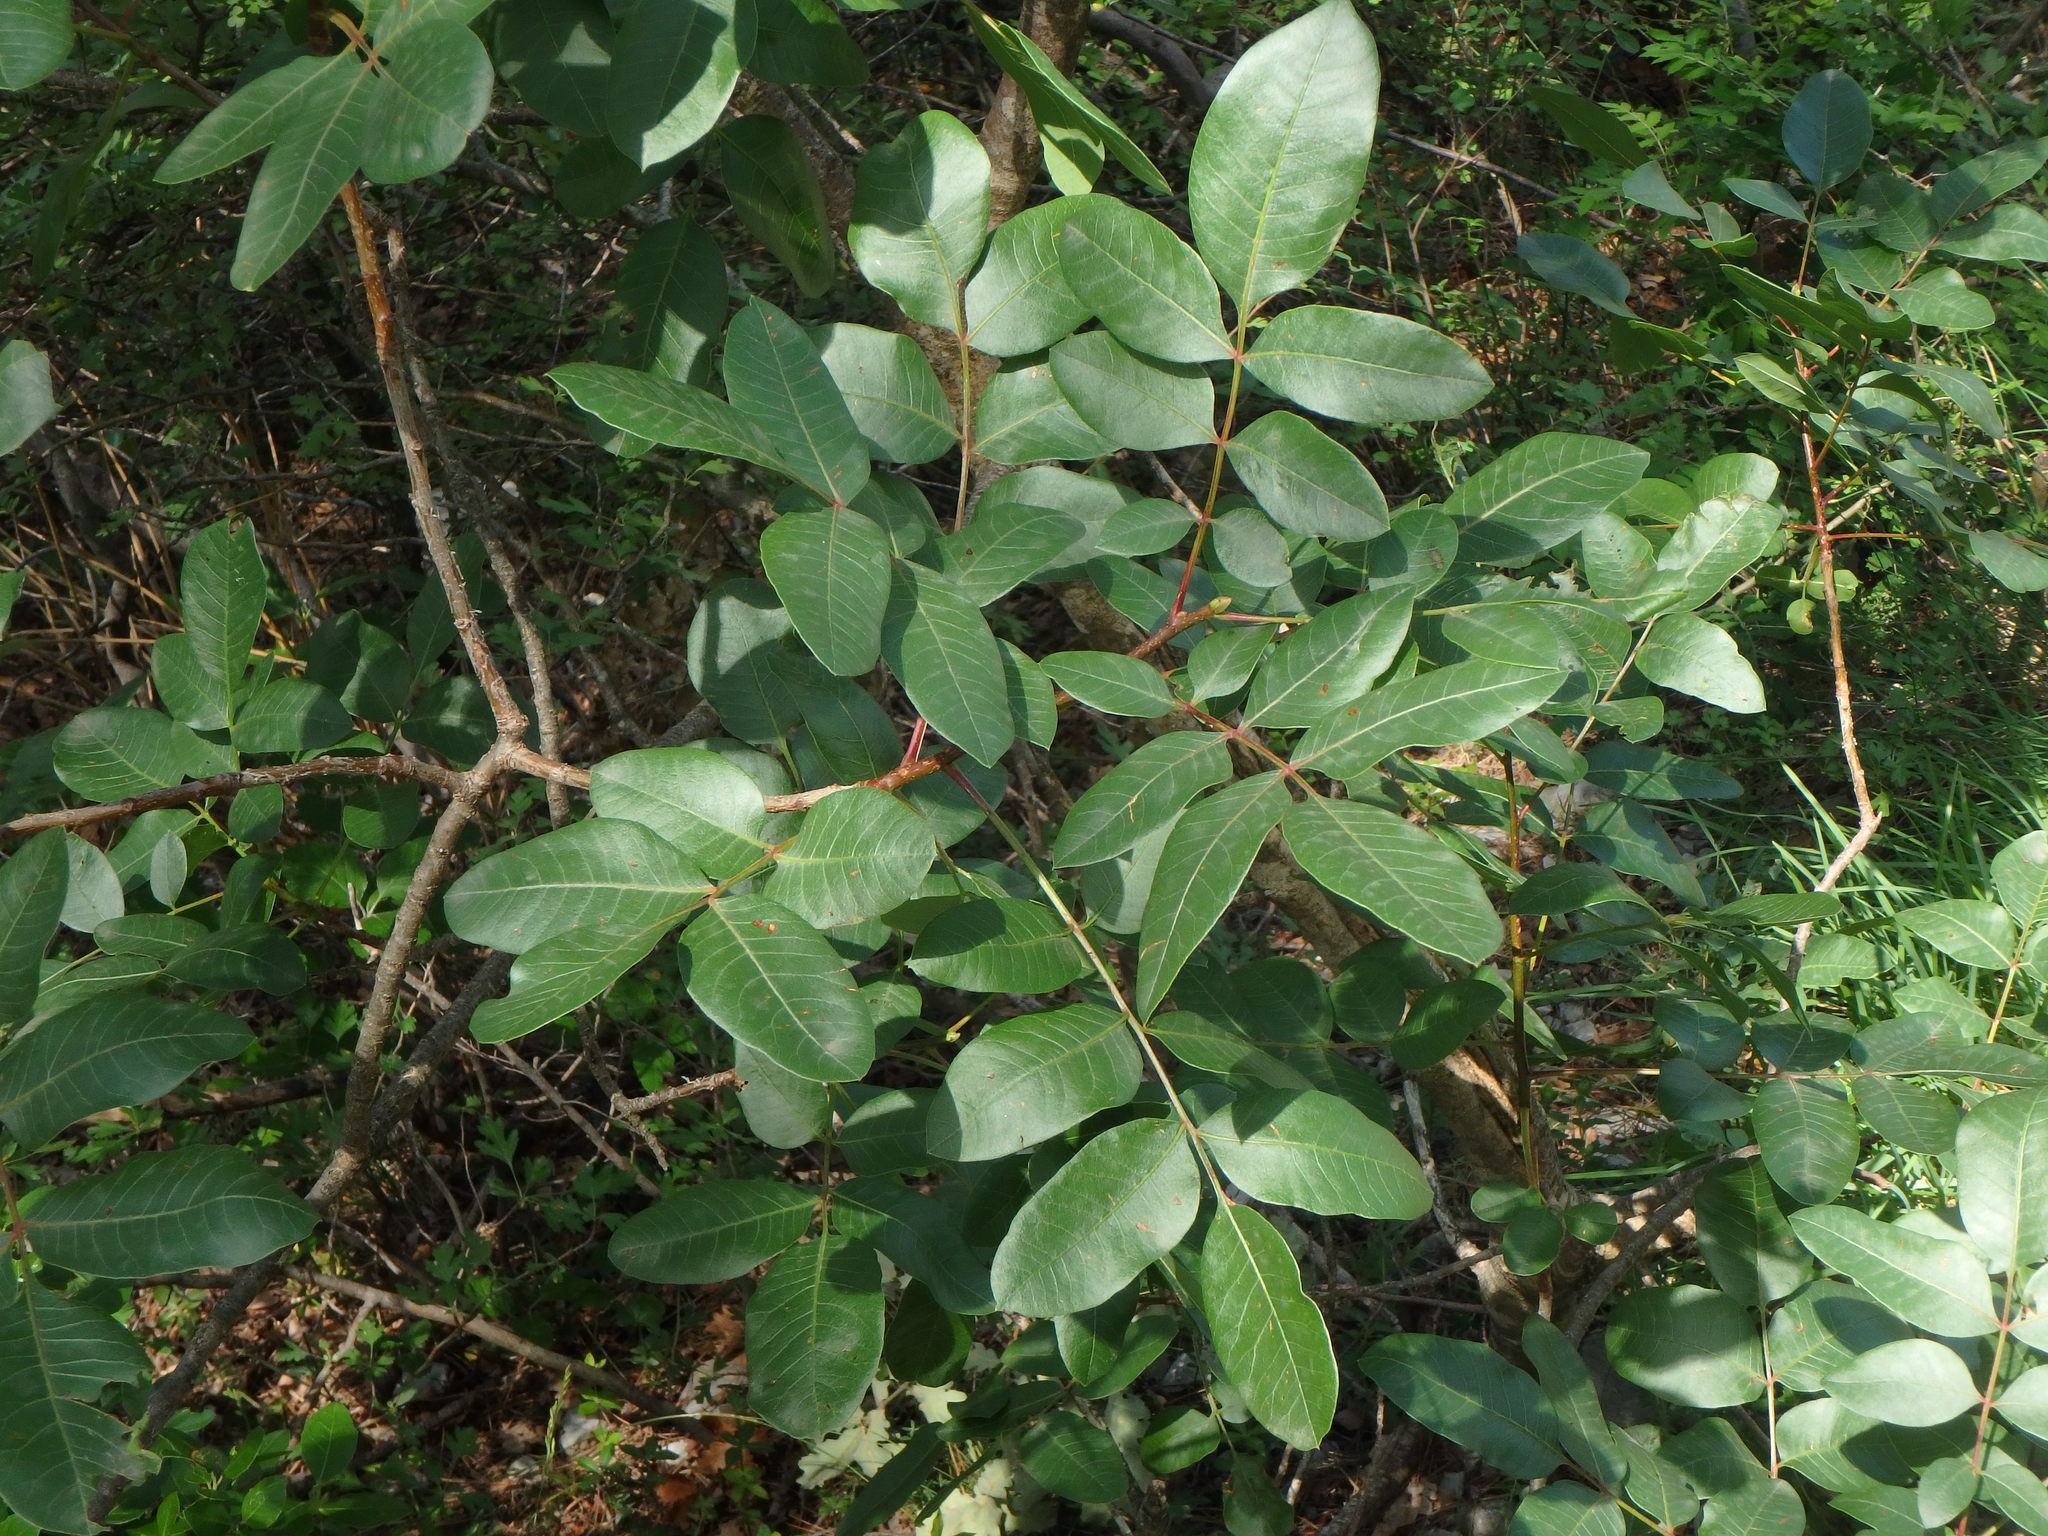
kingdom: Plantae
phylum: Tracheophyta
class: Magnoliopsida
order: Sapindales
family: Anacardiaceae
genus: Pistacia
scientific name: Pistacia terebinthus
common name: Terebinth
